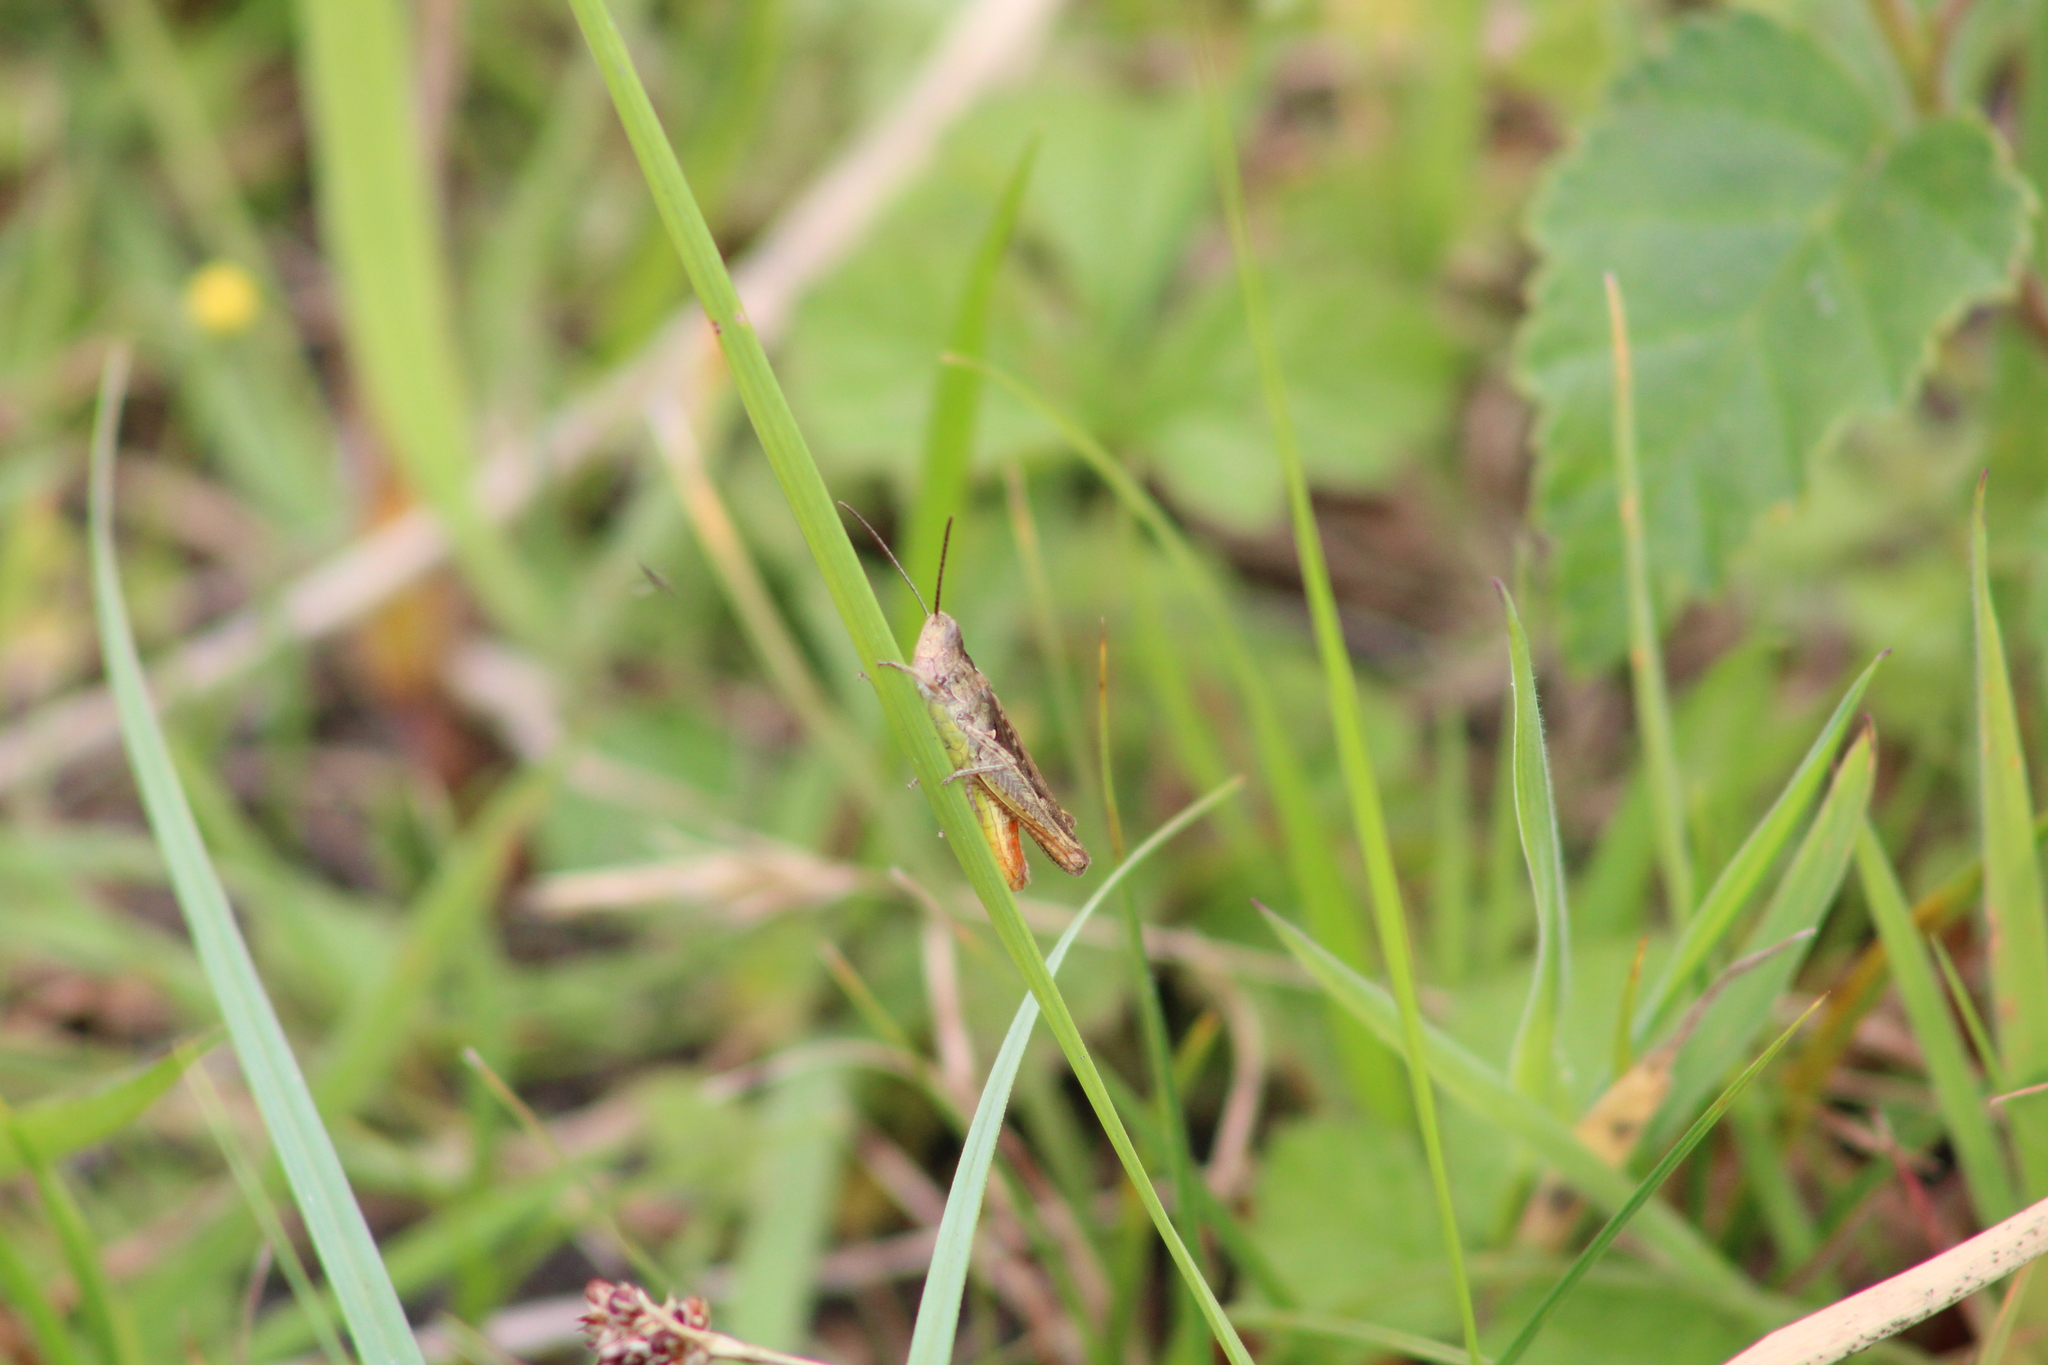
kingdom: Animalia
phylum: Arthropoda
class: Insecta
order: Orthoptera
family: Acrididae
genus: Chorthippus
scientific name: Chorthippus brunneus
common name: Field grasshopper
